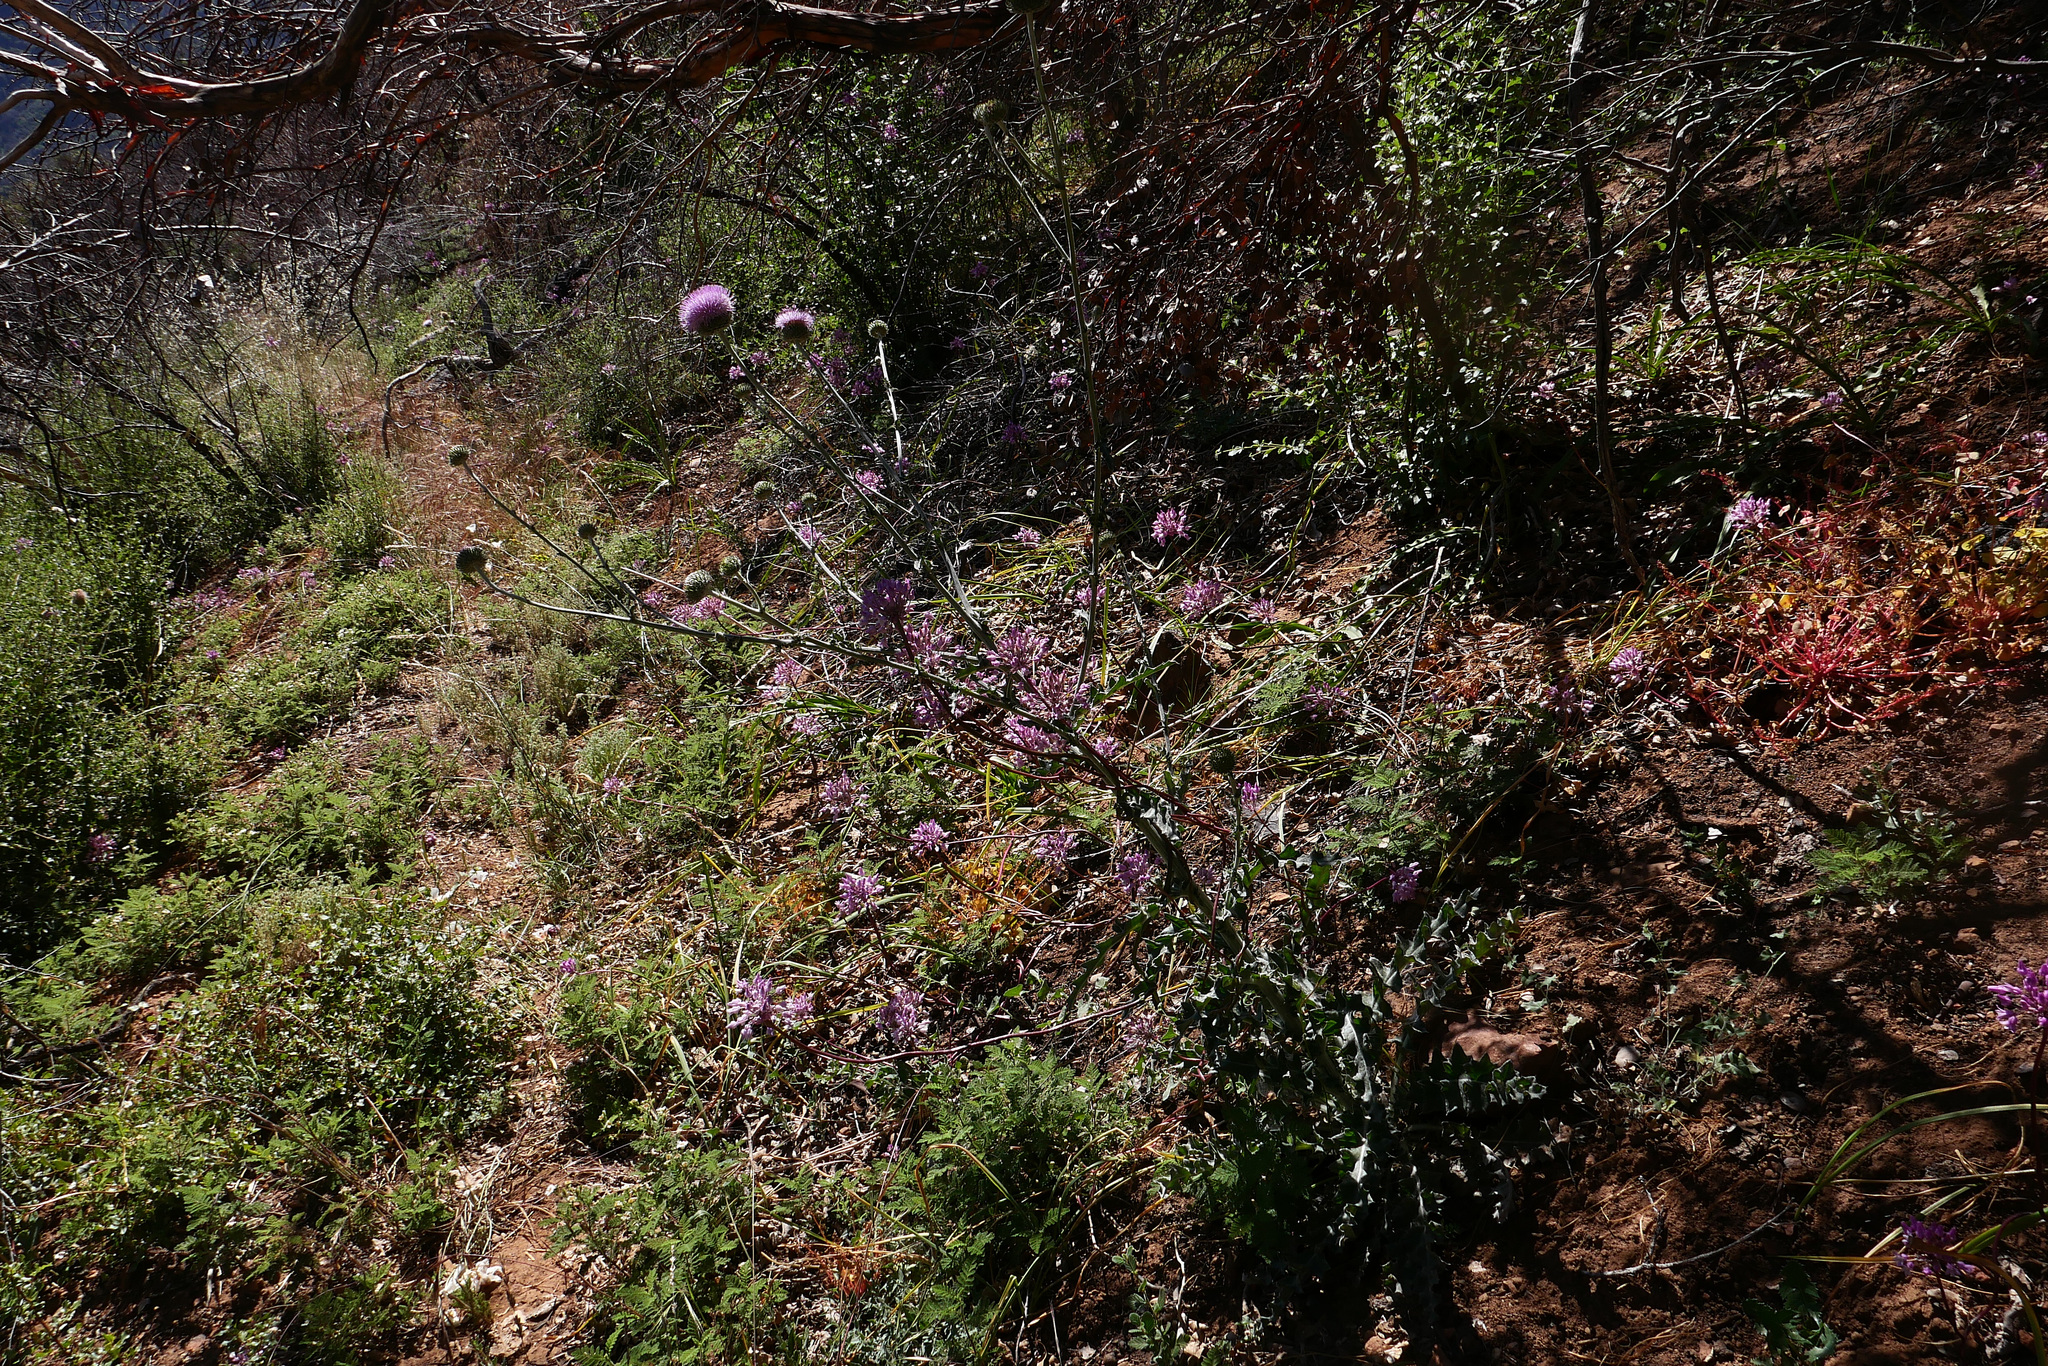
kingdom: Plantae
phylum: Tracheophyta
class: Magnoliopsida
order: Asterales
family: Asteraceae
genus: Cirsium
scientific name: Cirsium occidentale
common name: Western thistle
